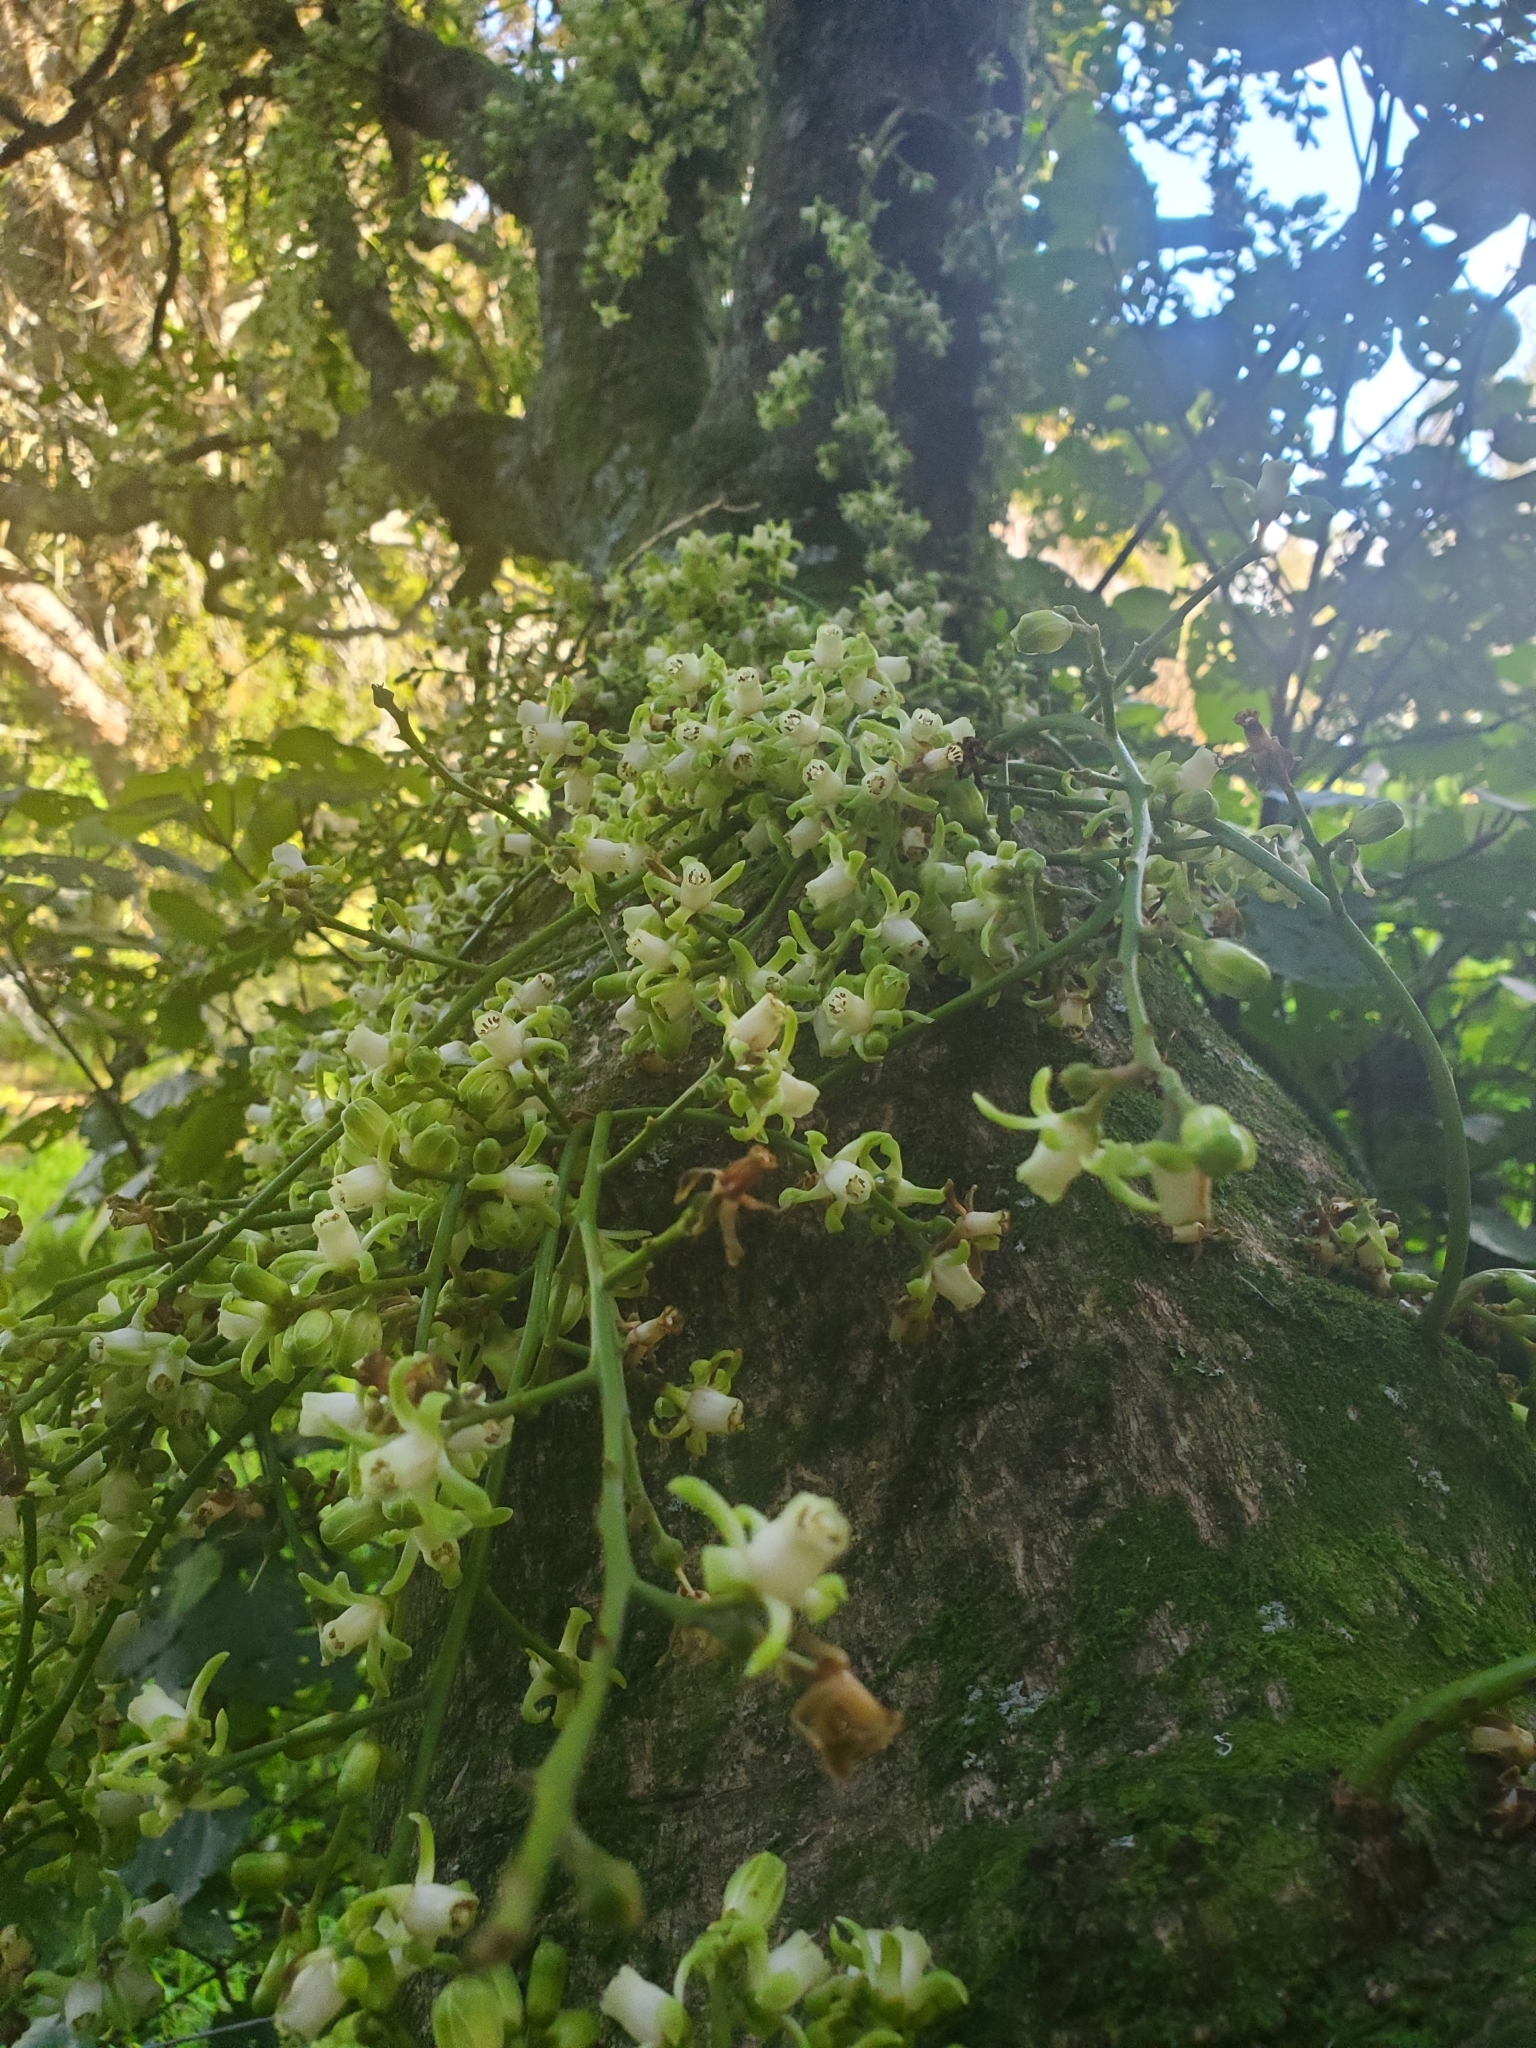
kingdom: Plantae
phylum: Tracheophyta
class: Magnoliopsida
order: Sapindales
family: Meliaceae
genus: Didymocheton
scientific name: Didymocheton spectabilis
